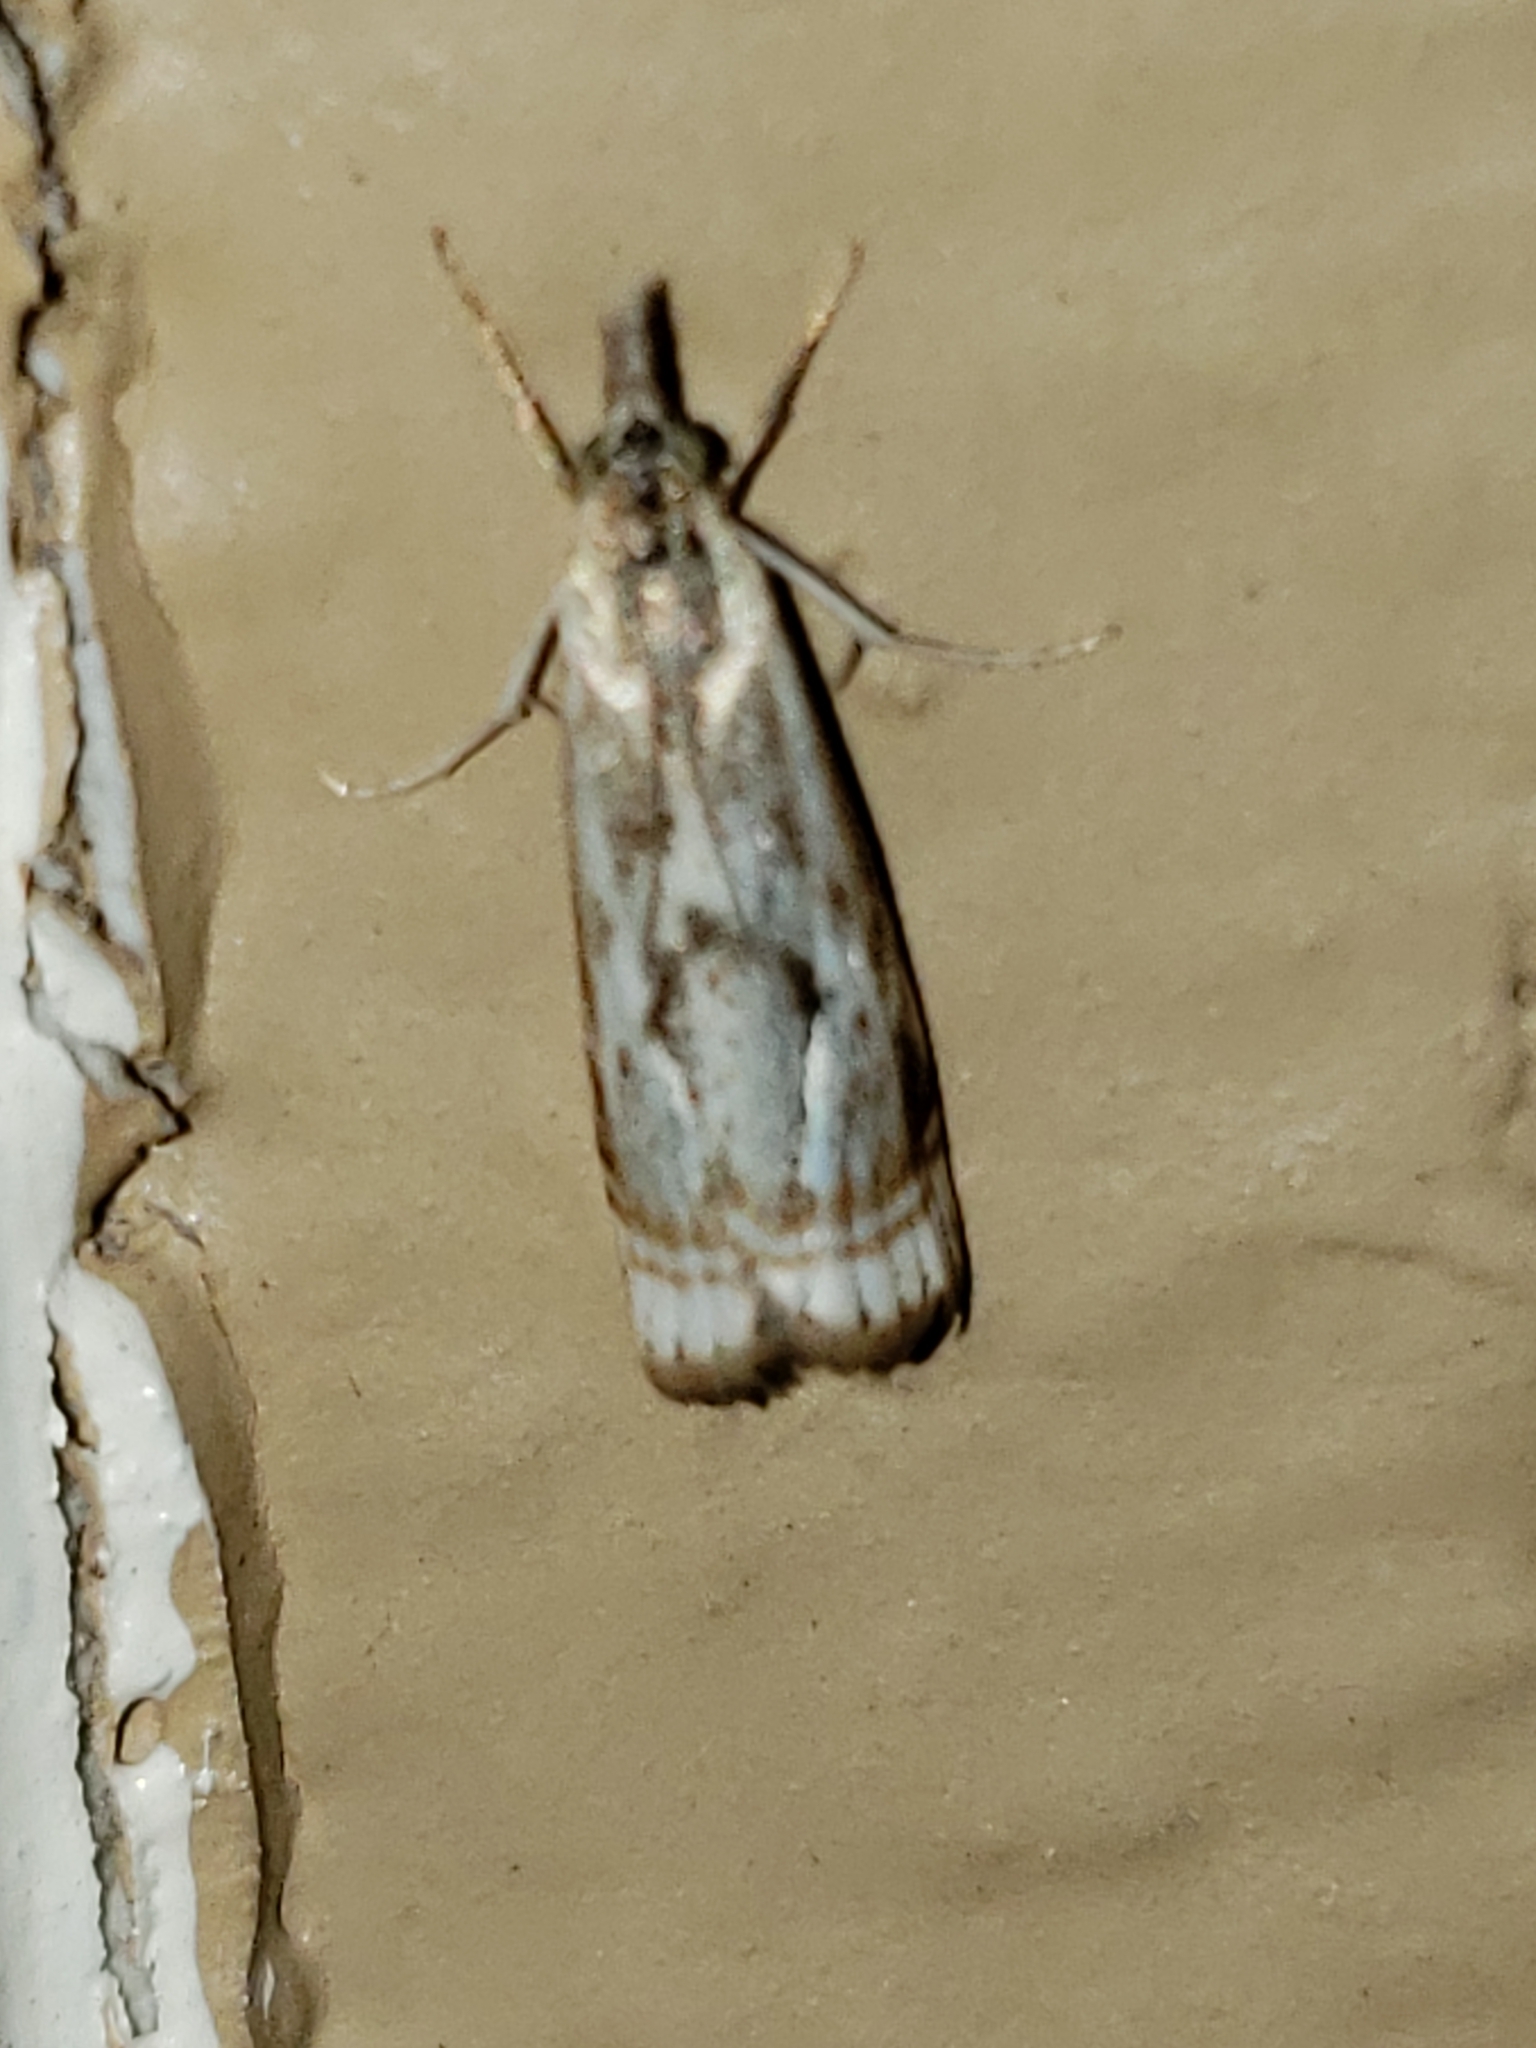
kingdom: Animalia
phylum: Arthropoda
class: Insecta
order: Lepidoptera
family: Crambidae
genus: Microcrambus
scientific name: Microcrambus elegans
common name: Elegant grass-veneer
